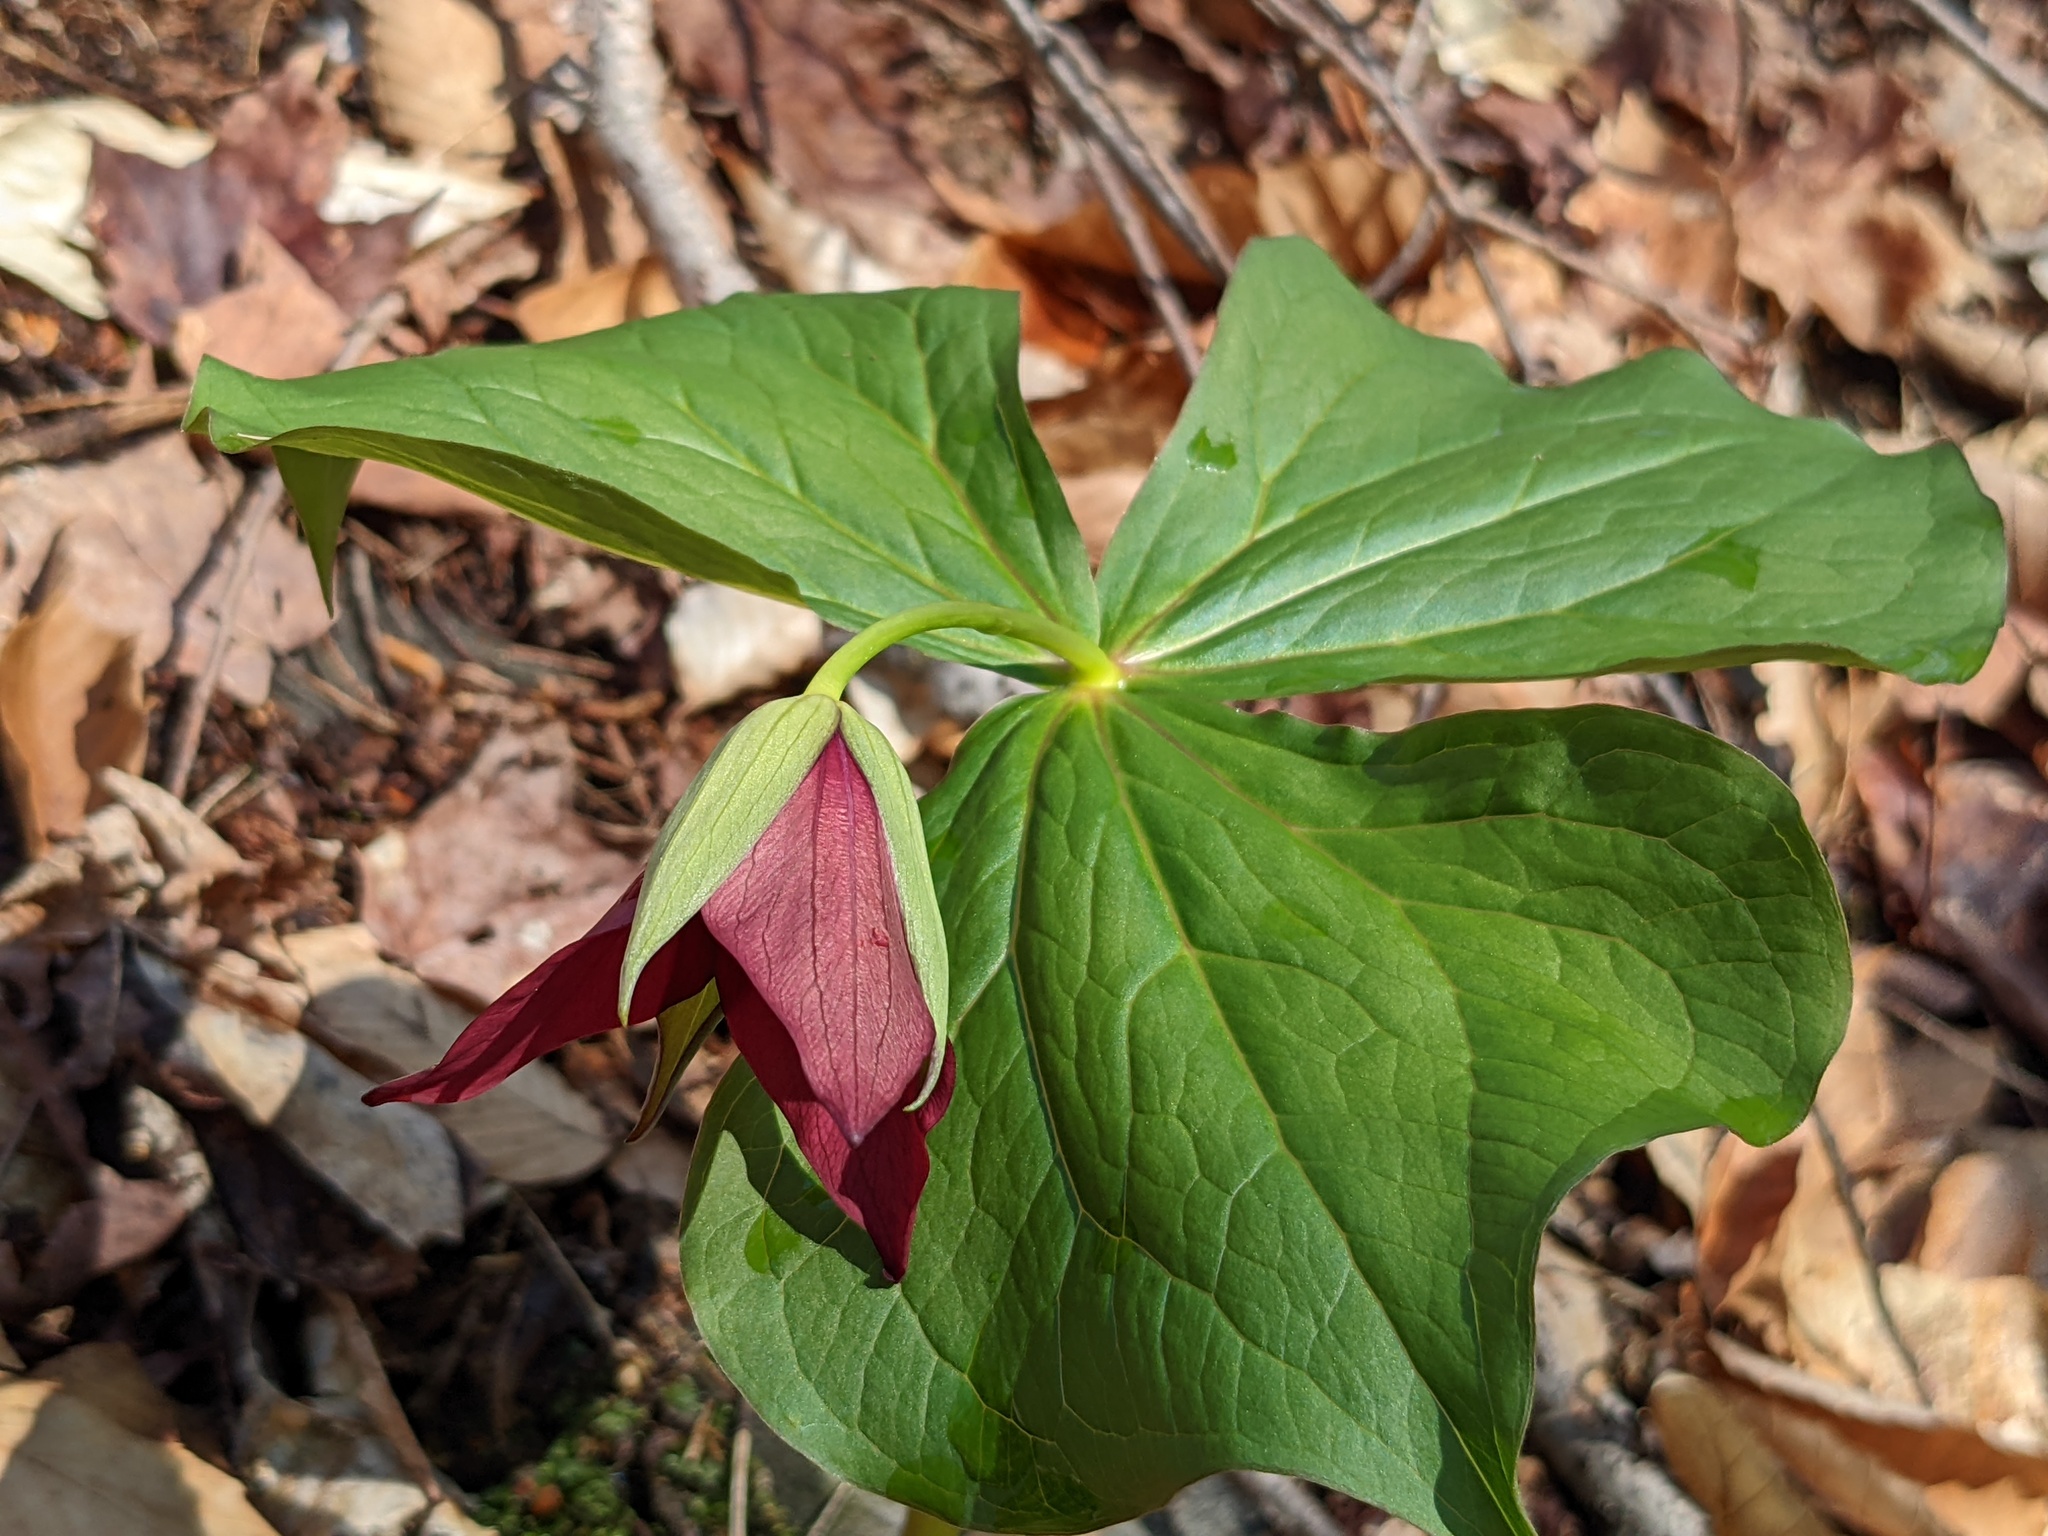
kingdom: Plantae
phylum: Tracheophyta
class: Liliopsida
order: Liliales
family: Melanthiaceae
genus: Trillium
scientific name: Trillium erectum
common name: Purple trillium
